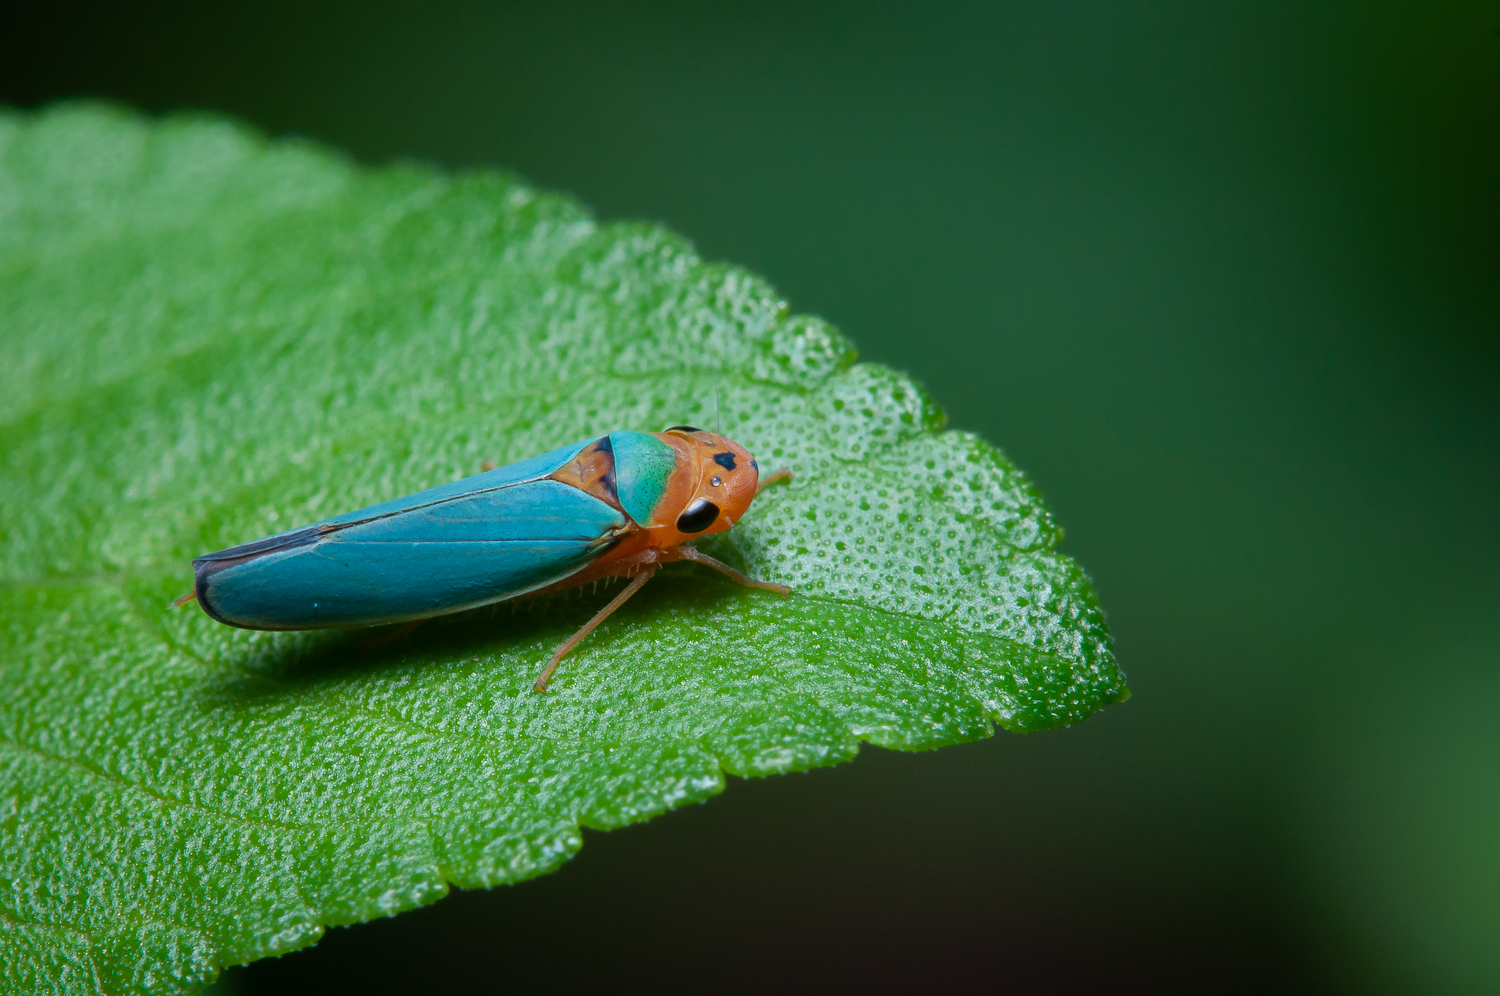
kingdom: Animalia
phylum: Arthropoda
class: Insecta
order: Hemiptera
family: Cicadellidae
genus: Macunolla
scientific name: Macunolla ventralis
